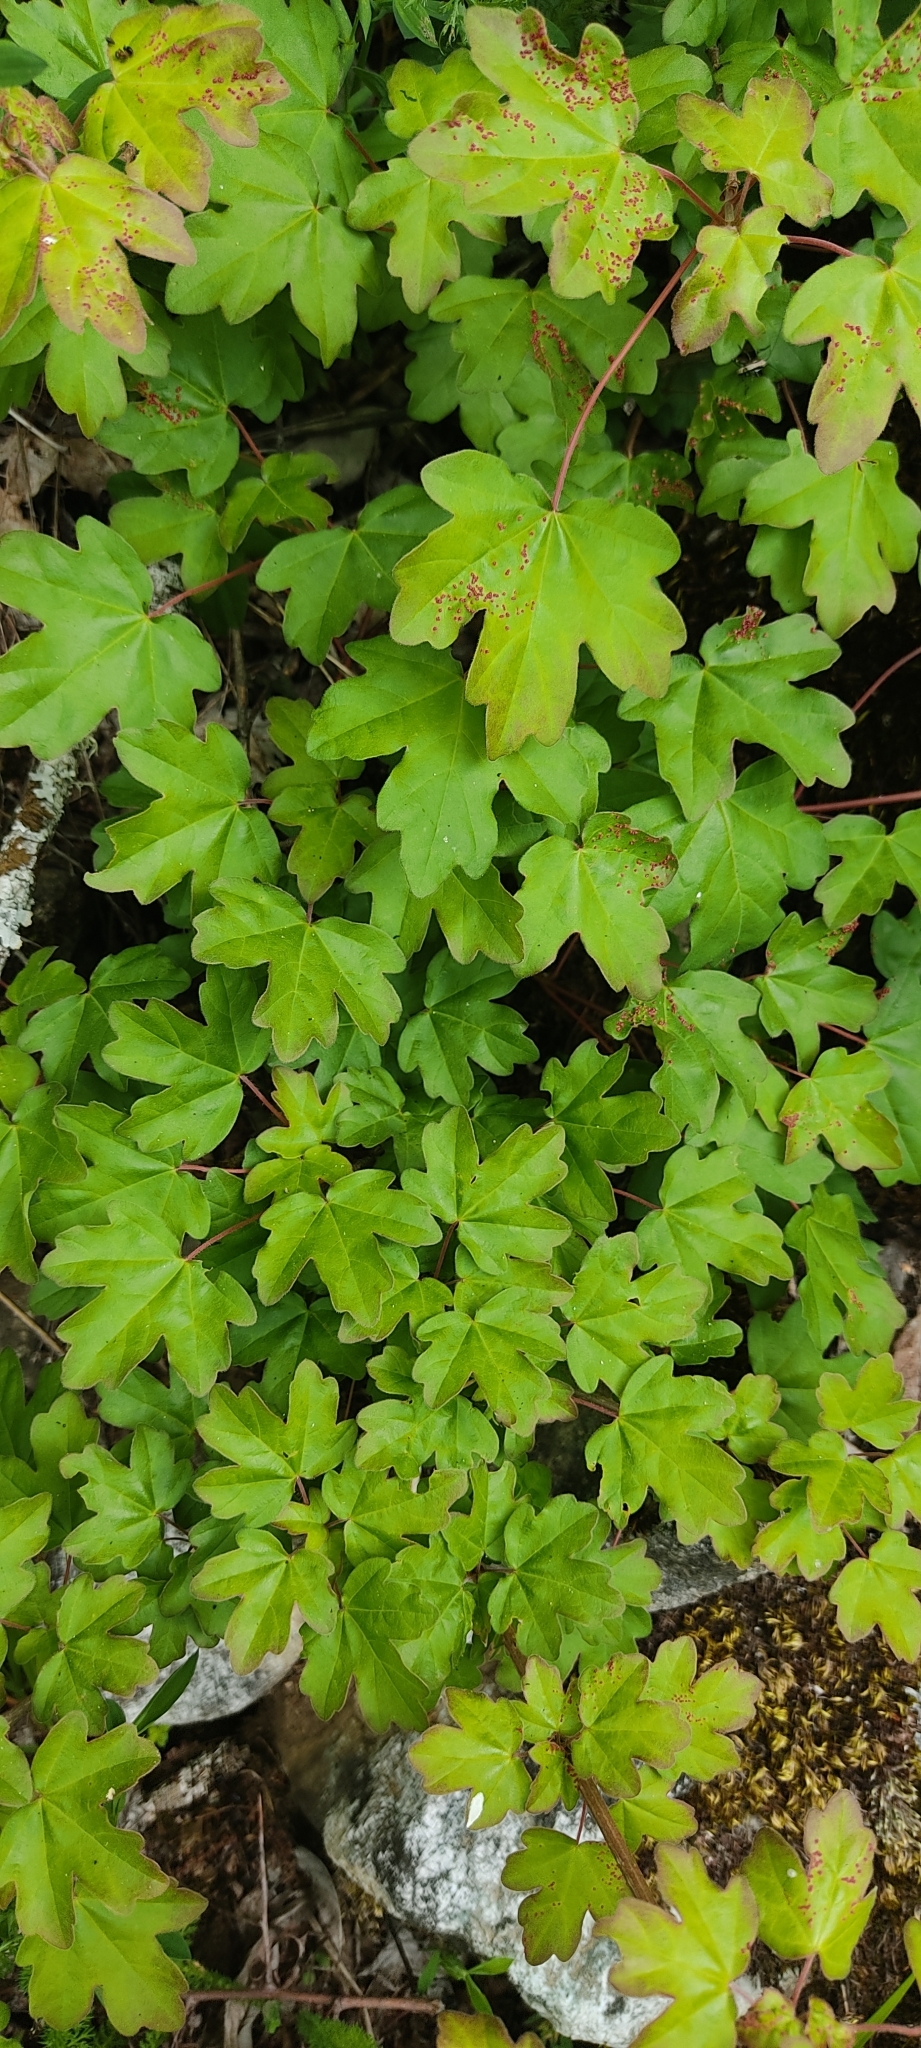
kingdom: Plantae
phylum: Tracheophyta
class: Magnoliopsida
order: Sapindales
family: Sapindaceae
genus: Acer
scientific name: Acer campestre
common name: Field maple
